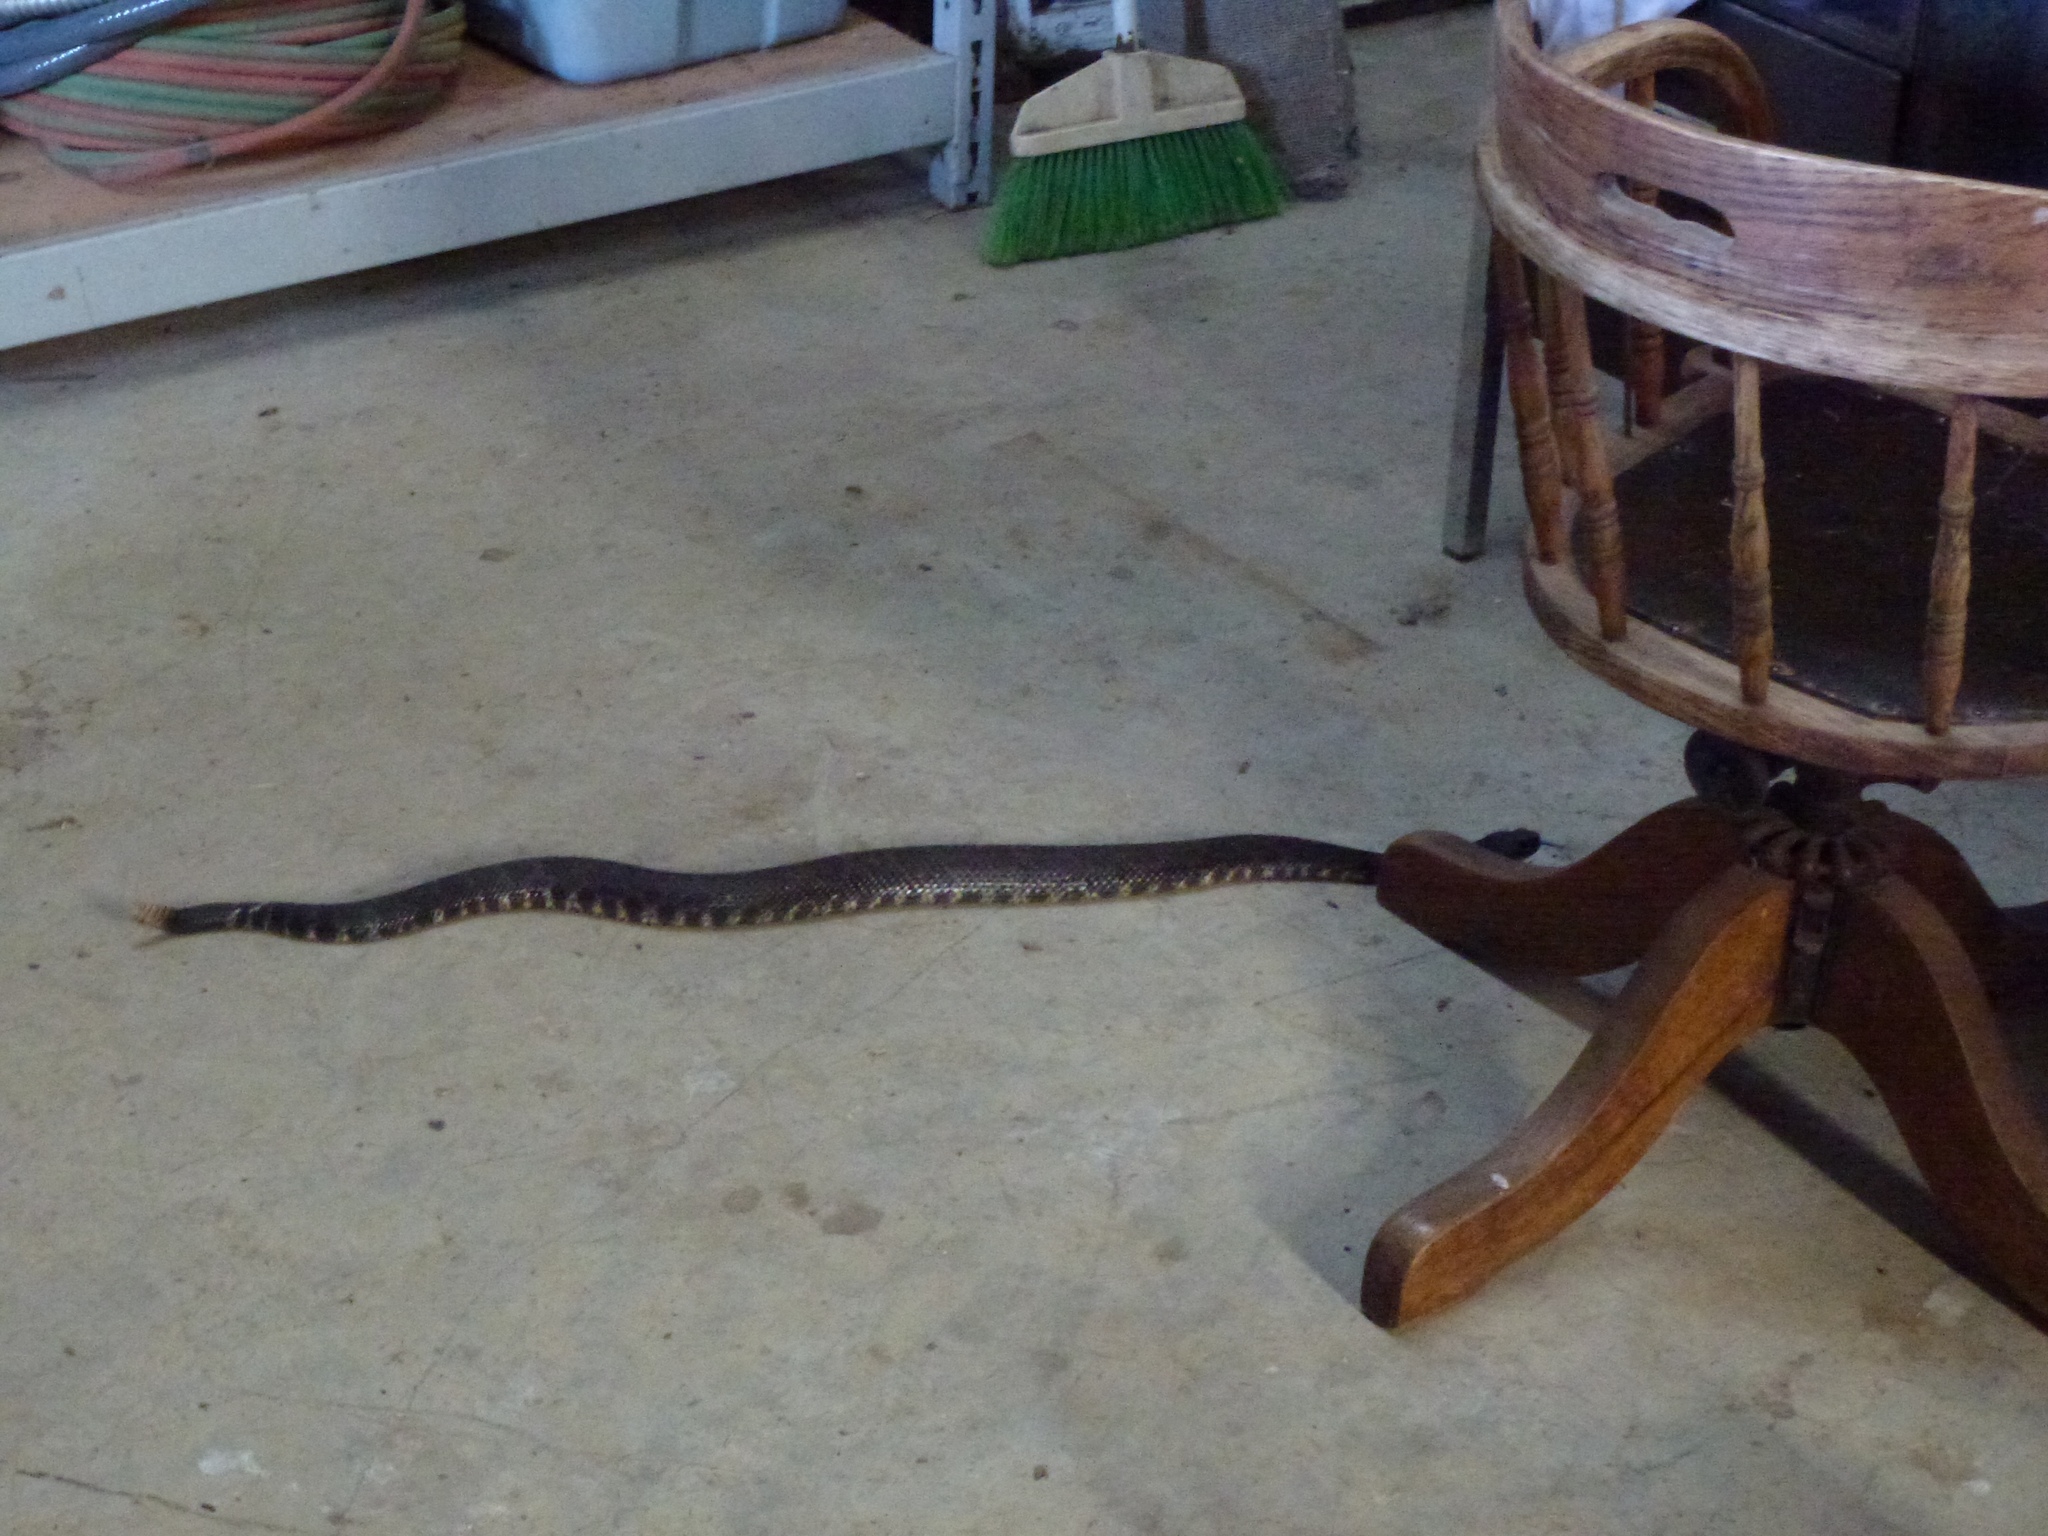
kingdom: Animalia
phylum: Chordata
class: Squamata
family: Viperidae
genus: Crotalus
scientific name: Crotalus oreganus
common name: Abyssus
